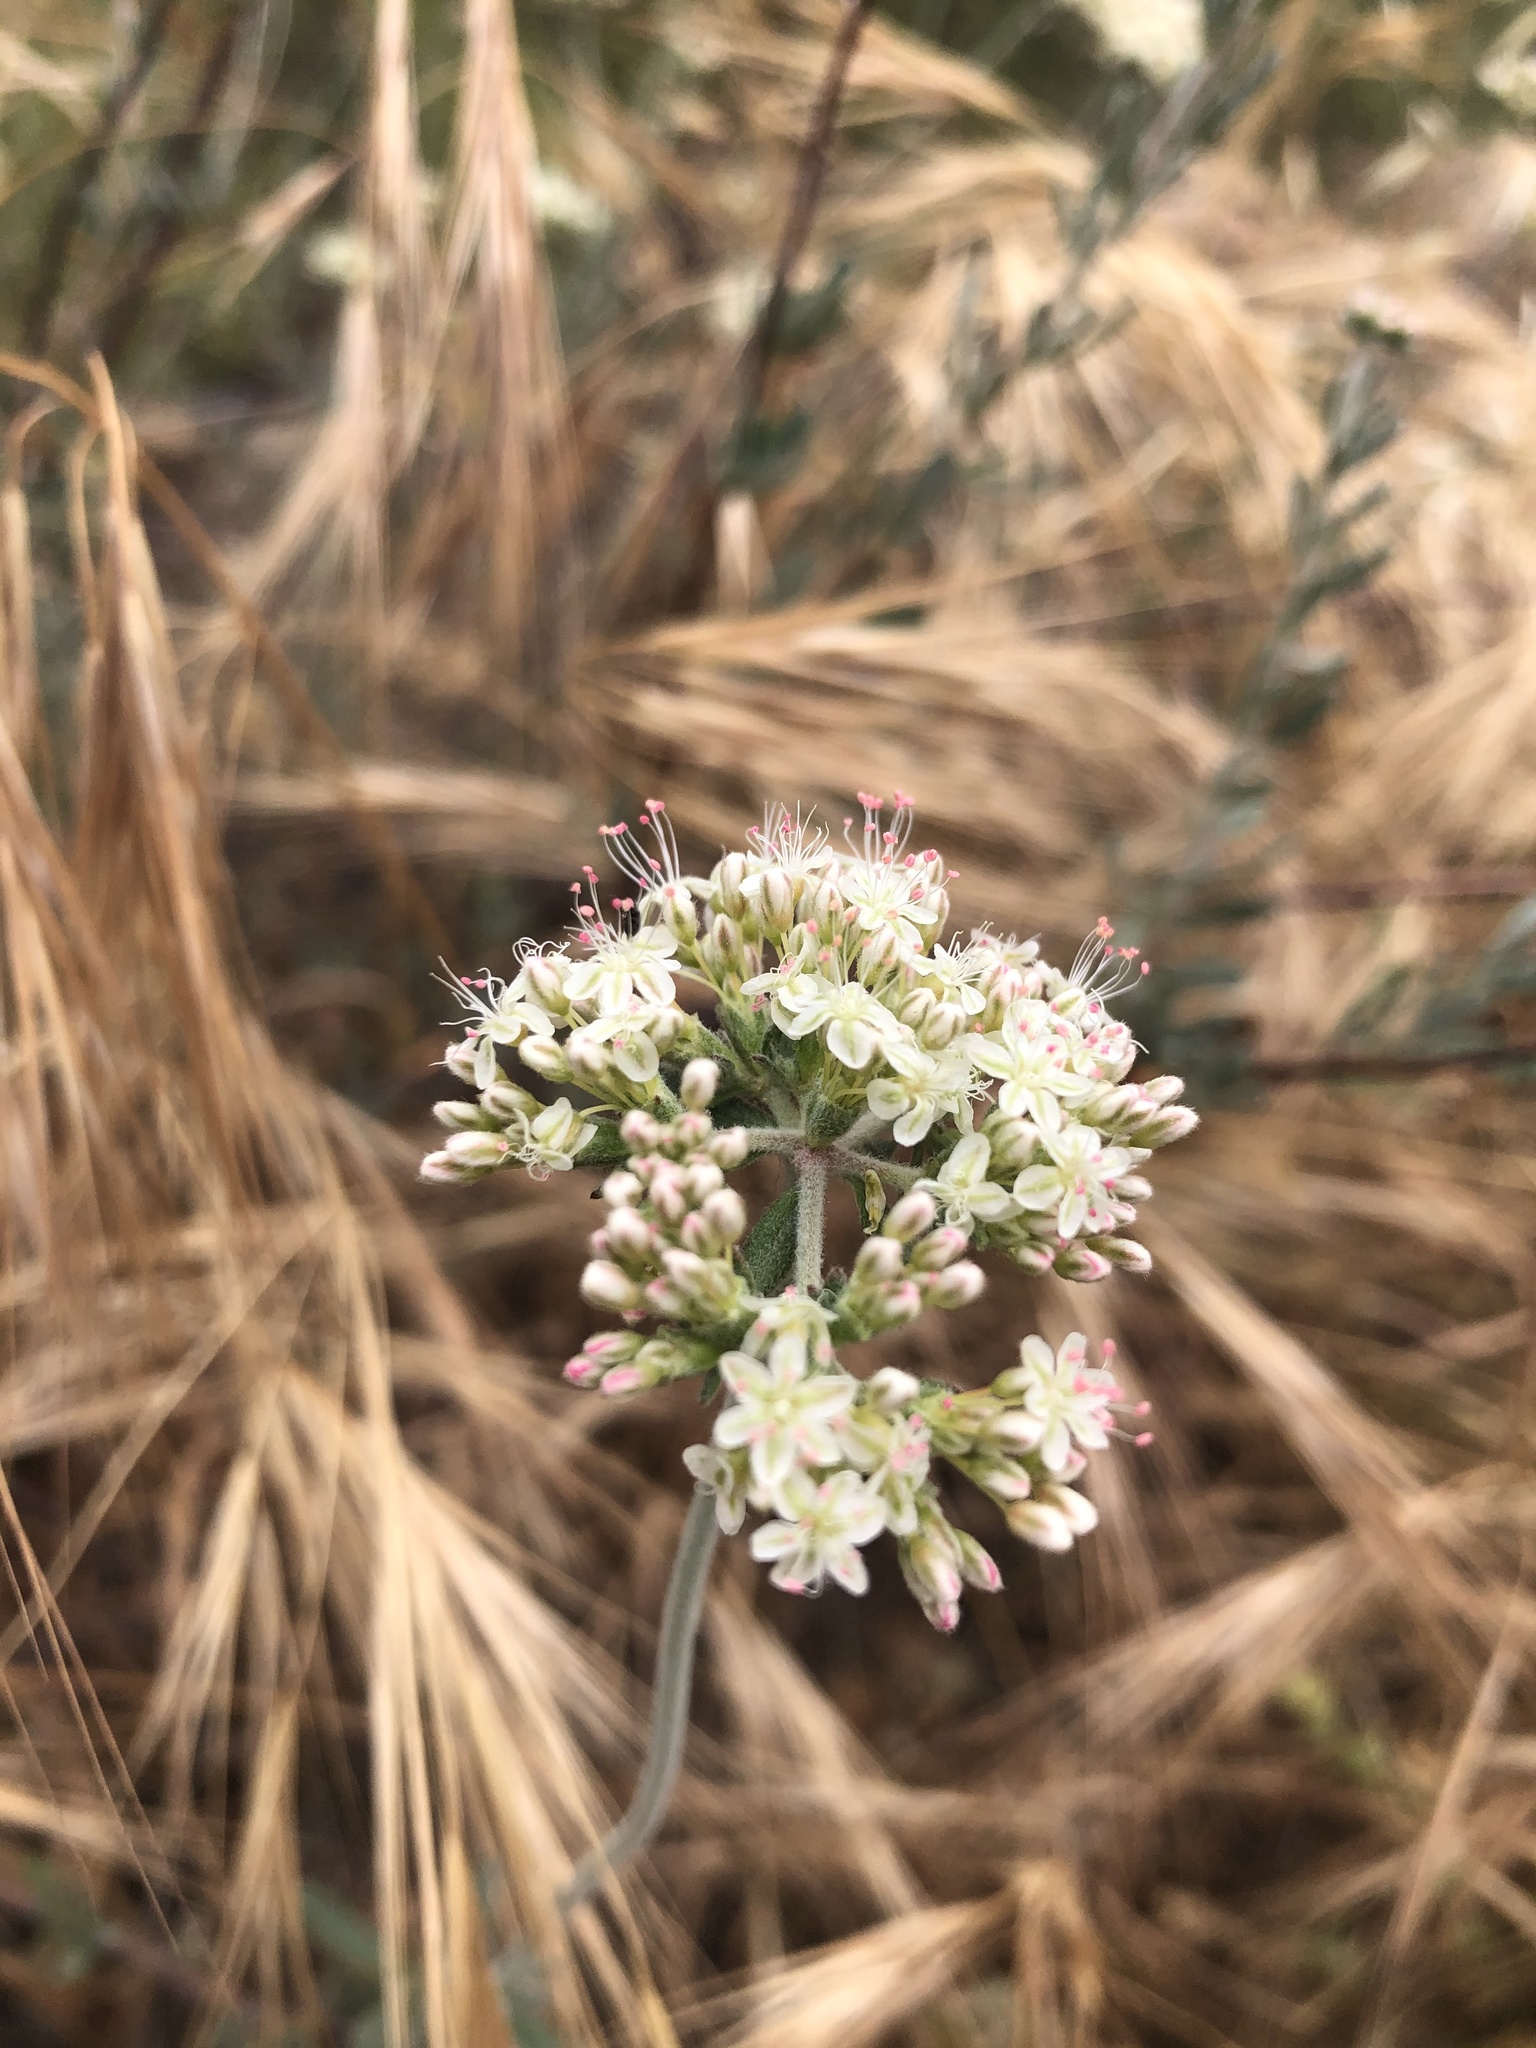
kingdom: Plantae
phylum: Tracheophyta
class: Magnoliopsida
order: Caryophyllales
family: Polygonaceae
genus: Eriogonum
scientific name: Eriogonum fasciculatum
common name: California wild buckwheat
